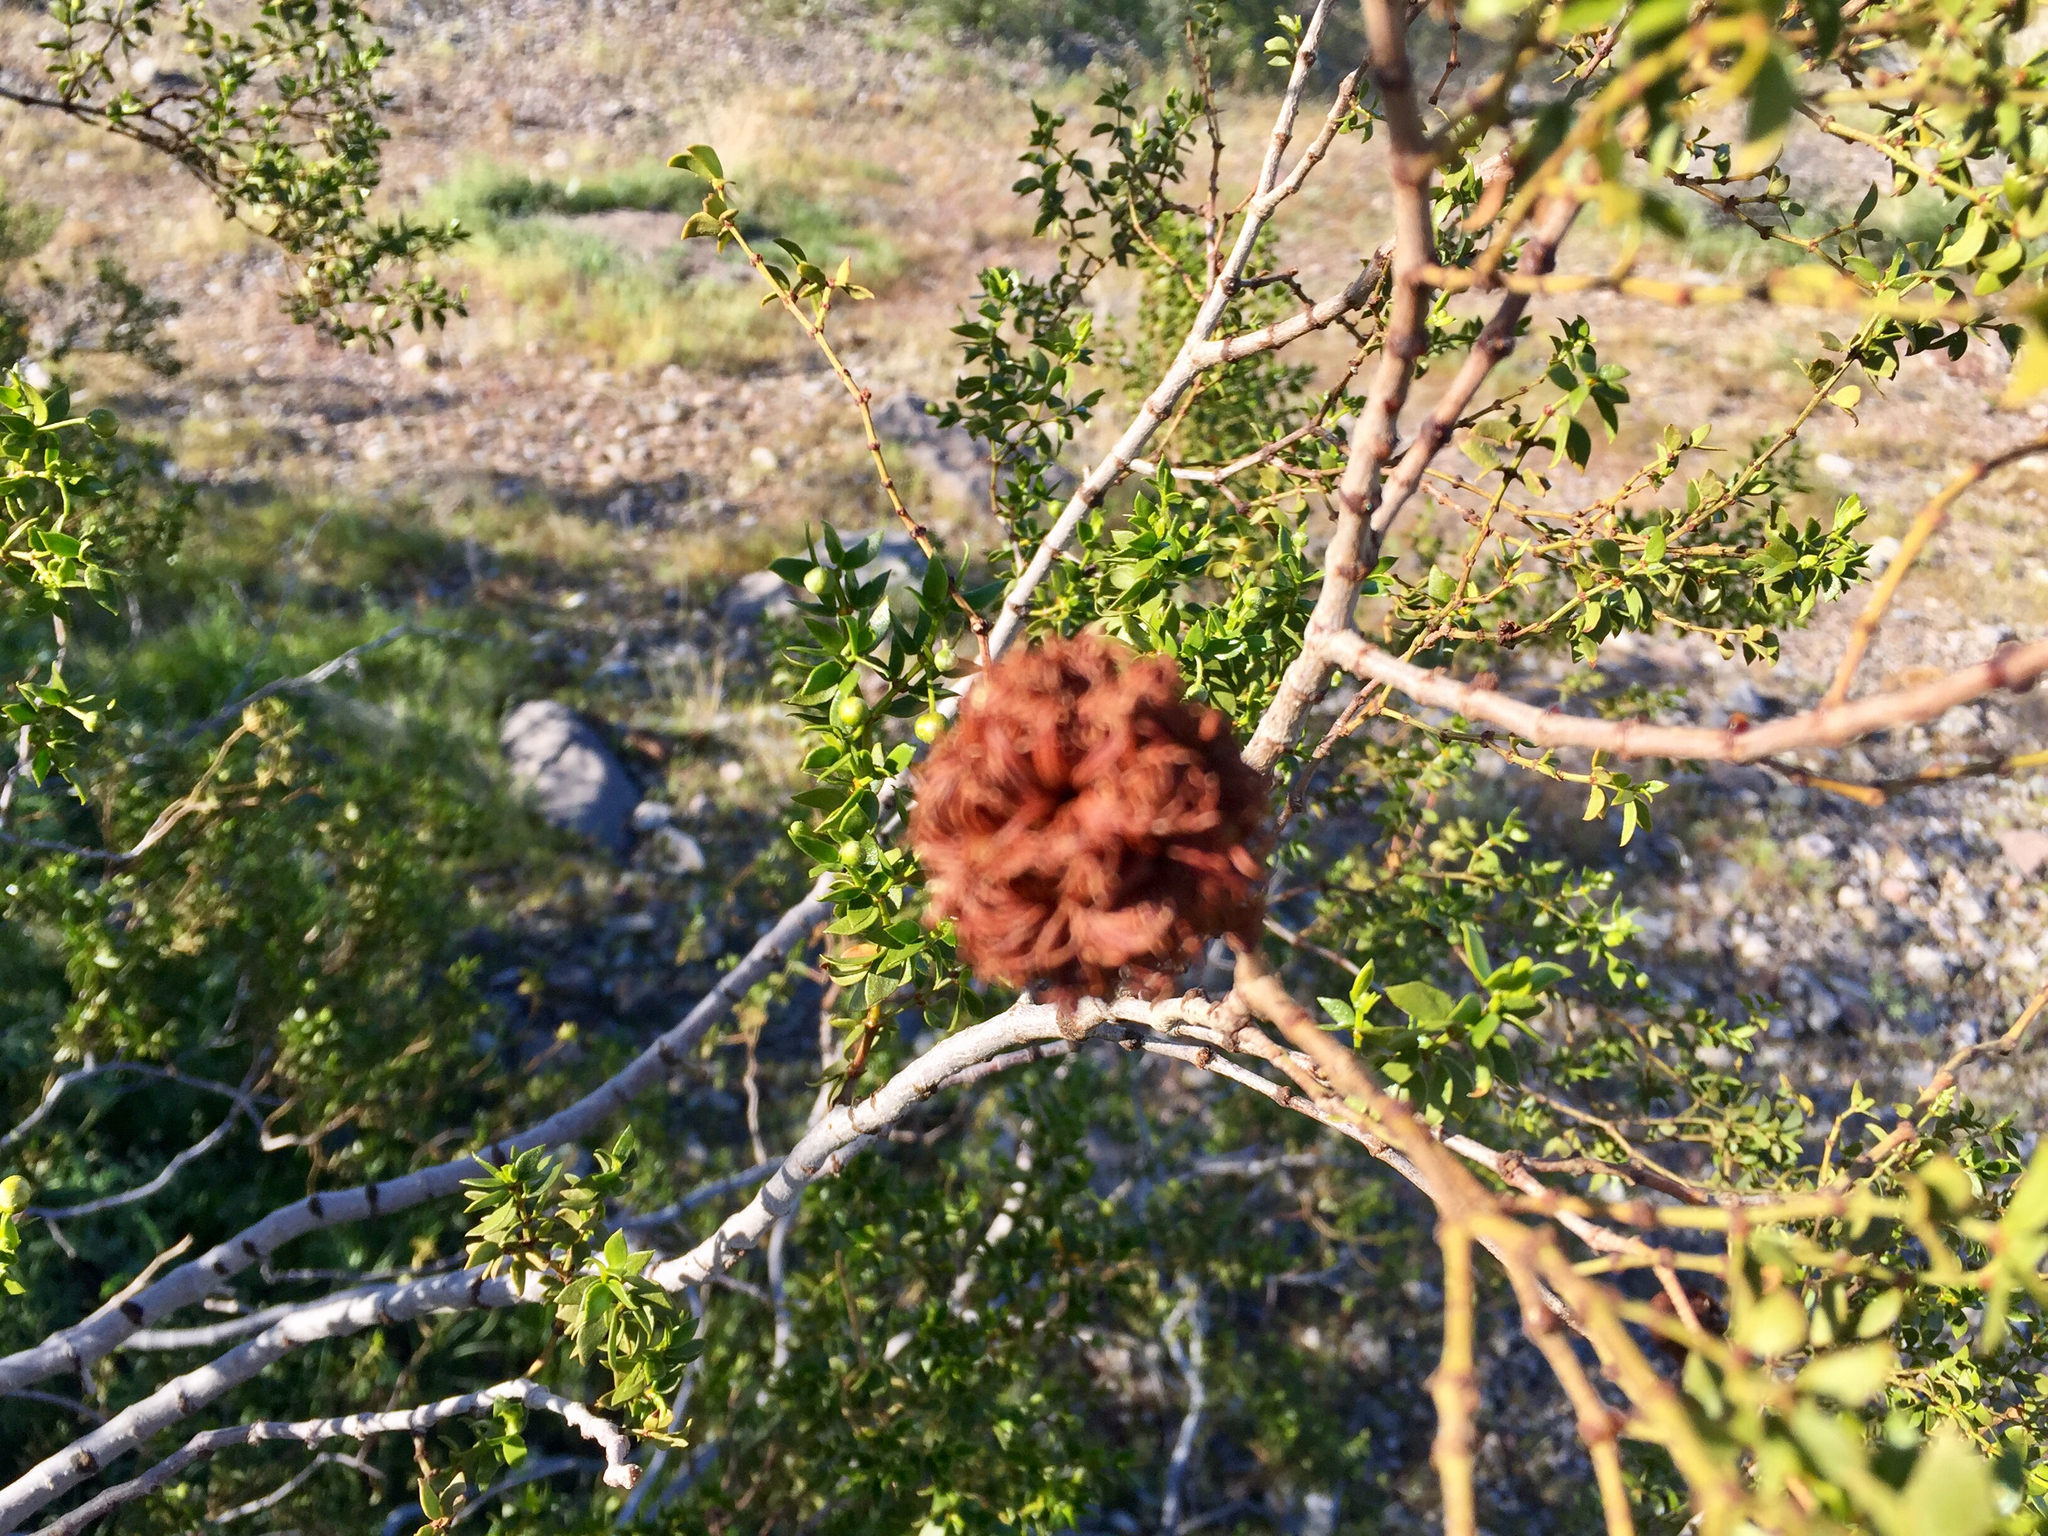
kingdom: Animalia
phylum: Arthropoda
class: Insecta
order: Diptera
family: Cecidomyiidae
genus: Asphondylia
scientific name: Asphondylia auripila
